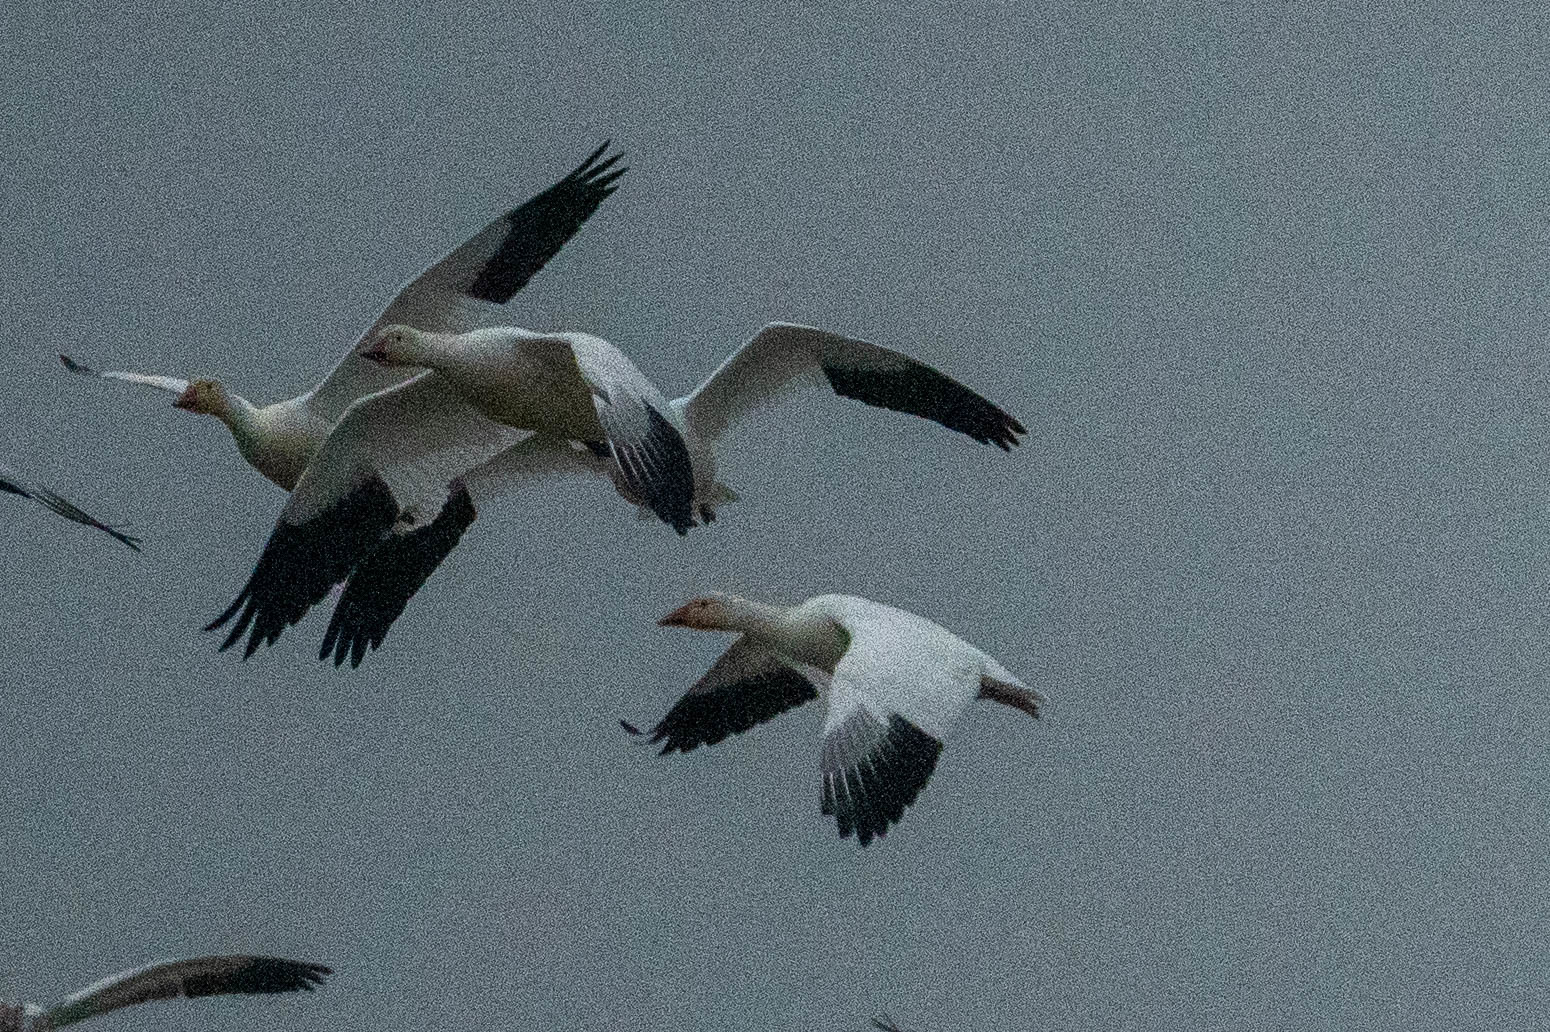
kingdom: Animalia
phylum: Chordata
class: Aves
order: Anseriformes
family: Anatidae
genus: Anser
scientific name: Anser caerulescens
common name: Snow goose
